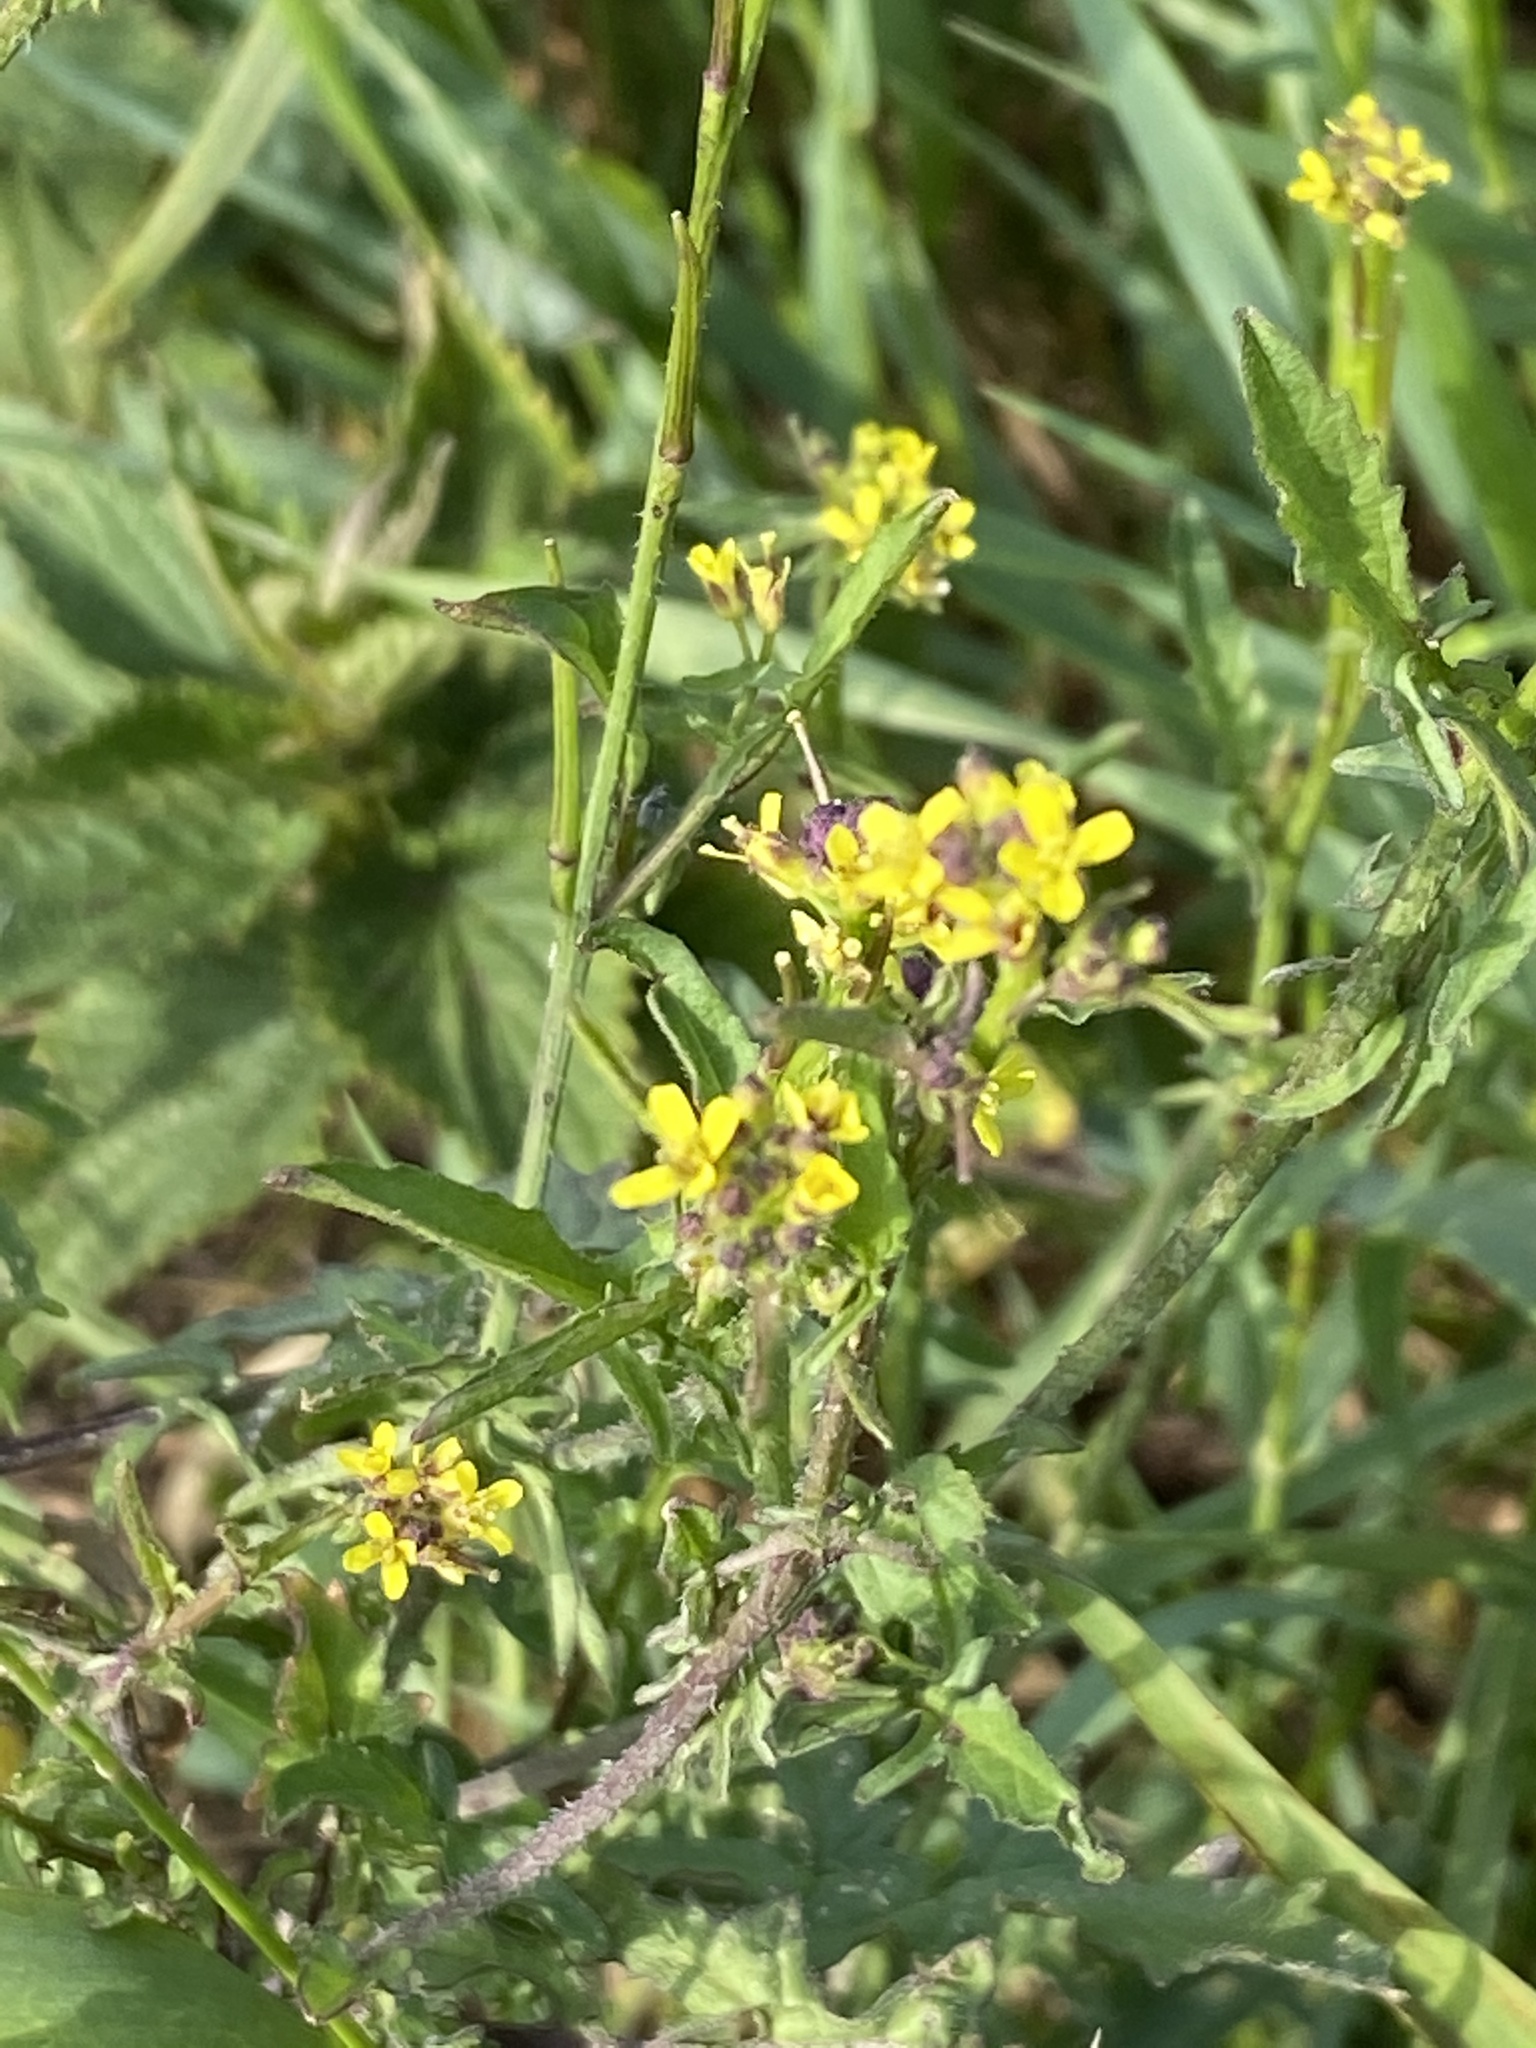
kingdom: Plantae
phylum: Tracheophyta
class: Magnoliopsida
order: Brassicales
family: Brassicaceae
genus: Sisymbrium
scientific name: Sisymbrium officinale
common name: Hedge mustard
